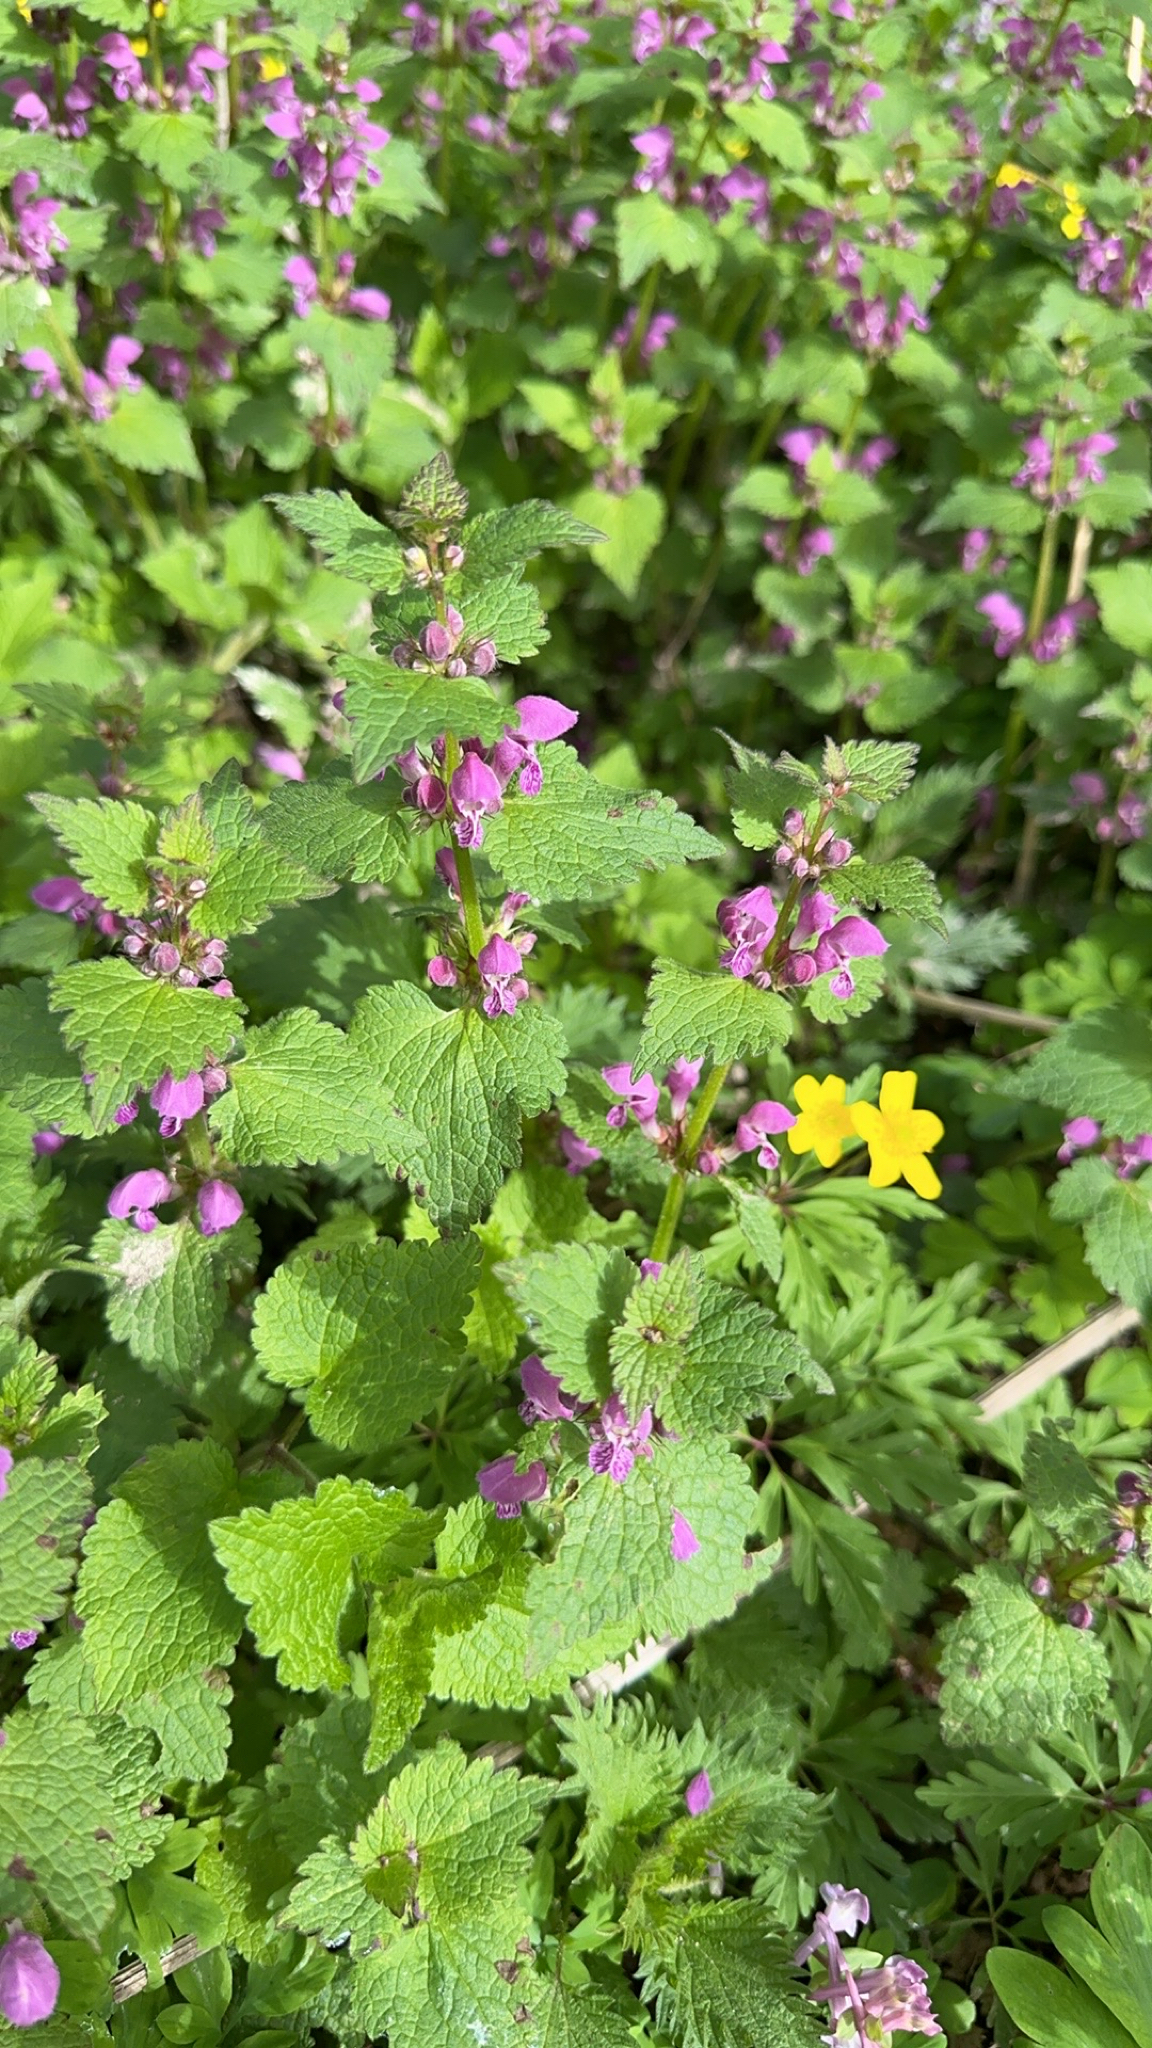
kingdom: Plantae
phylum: Tracheophyta
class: Magnoliopsida
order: Lamiales
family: Lamiaceae
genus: Lamium
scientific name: Lamium maculatum
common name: Spotted dead-nettle
